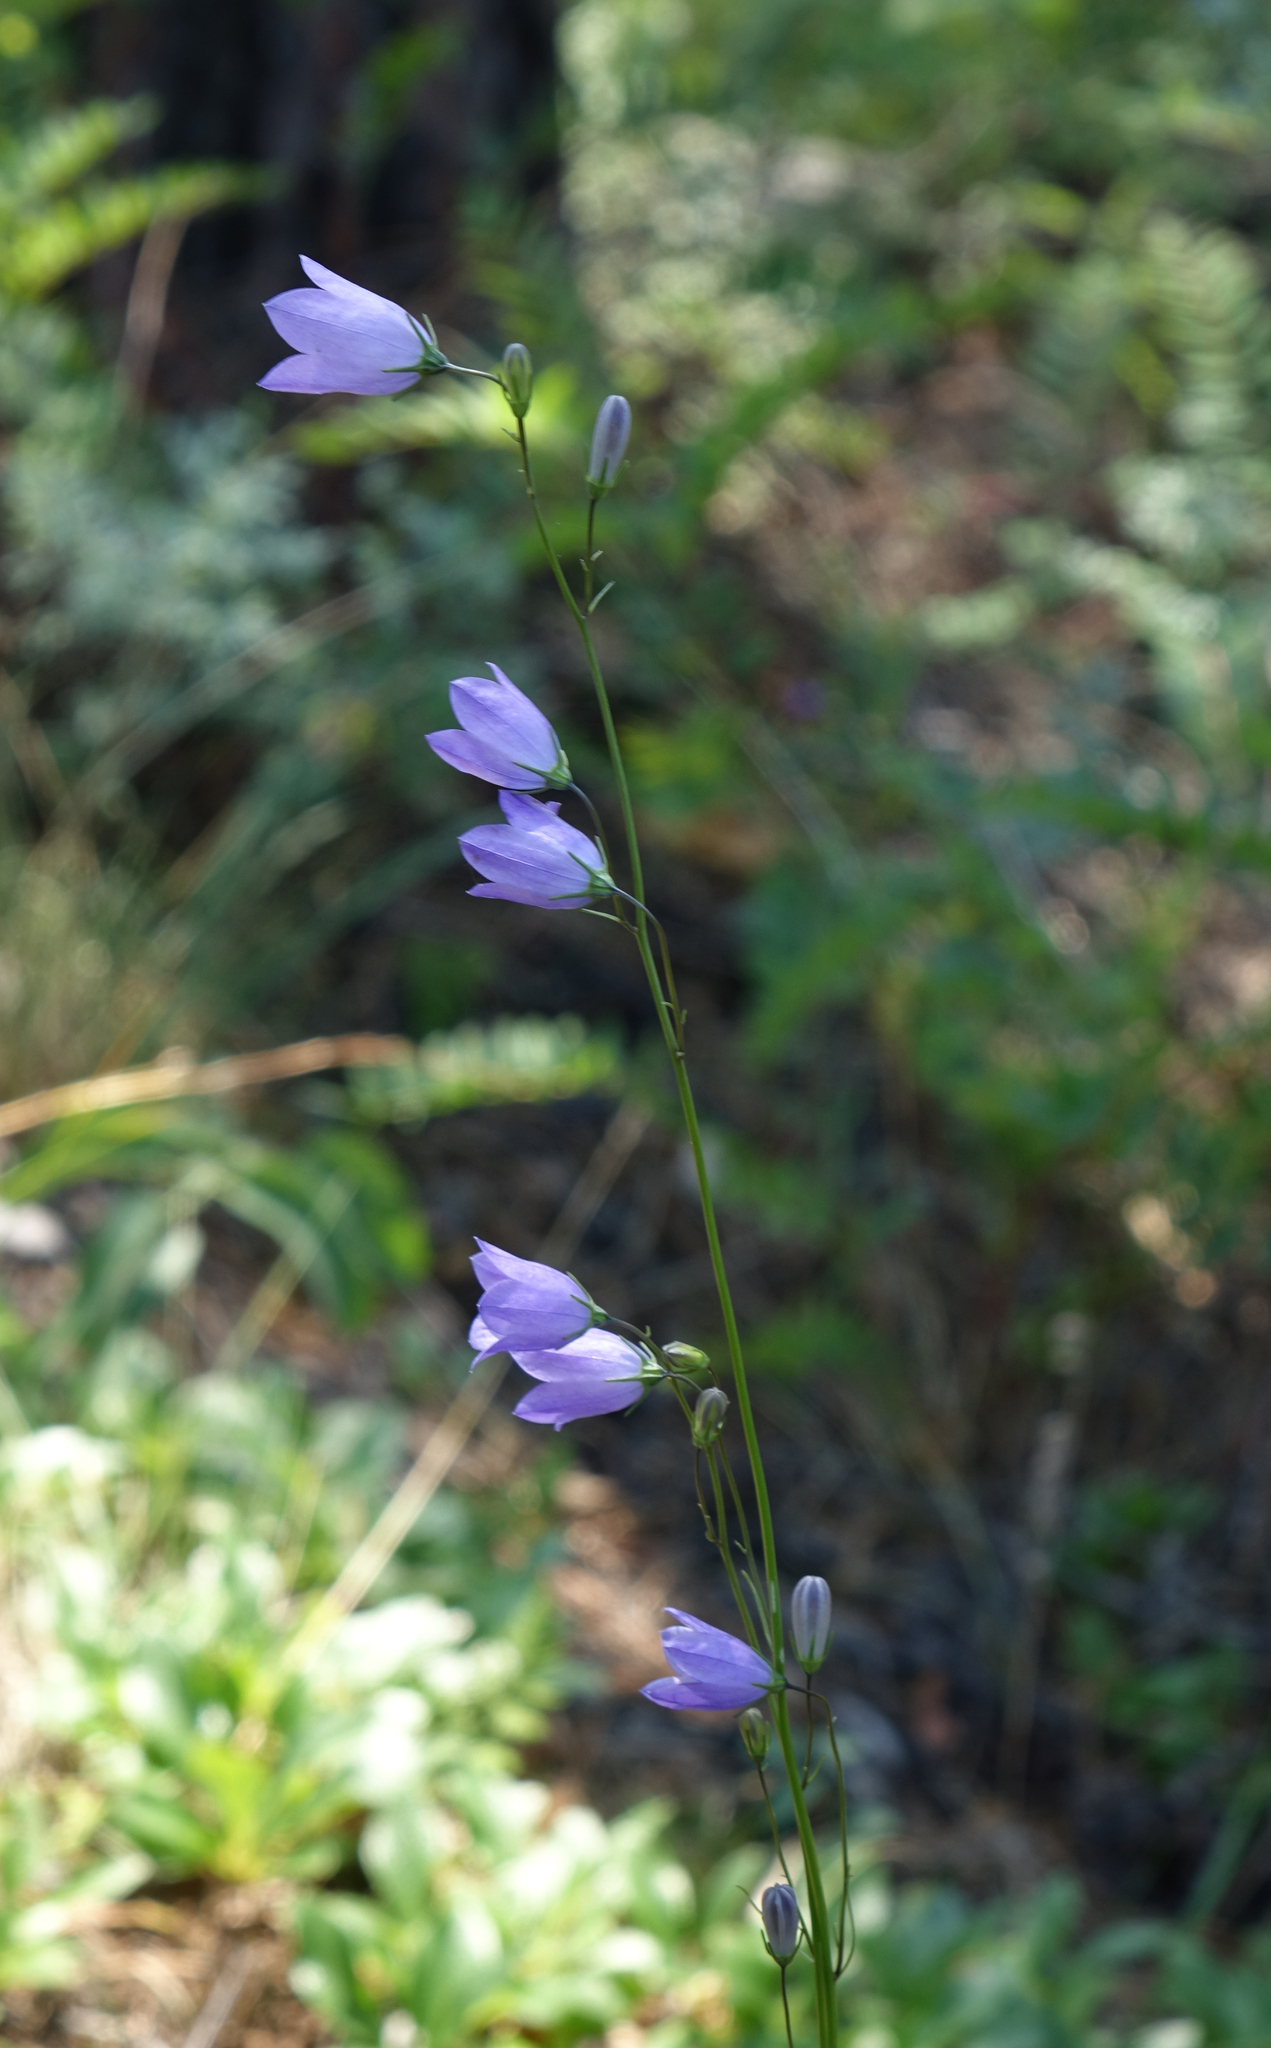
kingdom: Plantae
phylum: Tracheophyta
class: Magnoliopsida
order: Asterales
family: Campanulaceae
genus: Campanula
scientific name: Campanula rotundifolia
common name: Harebell
